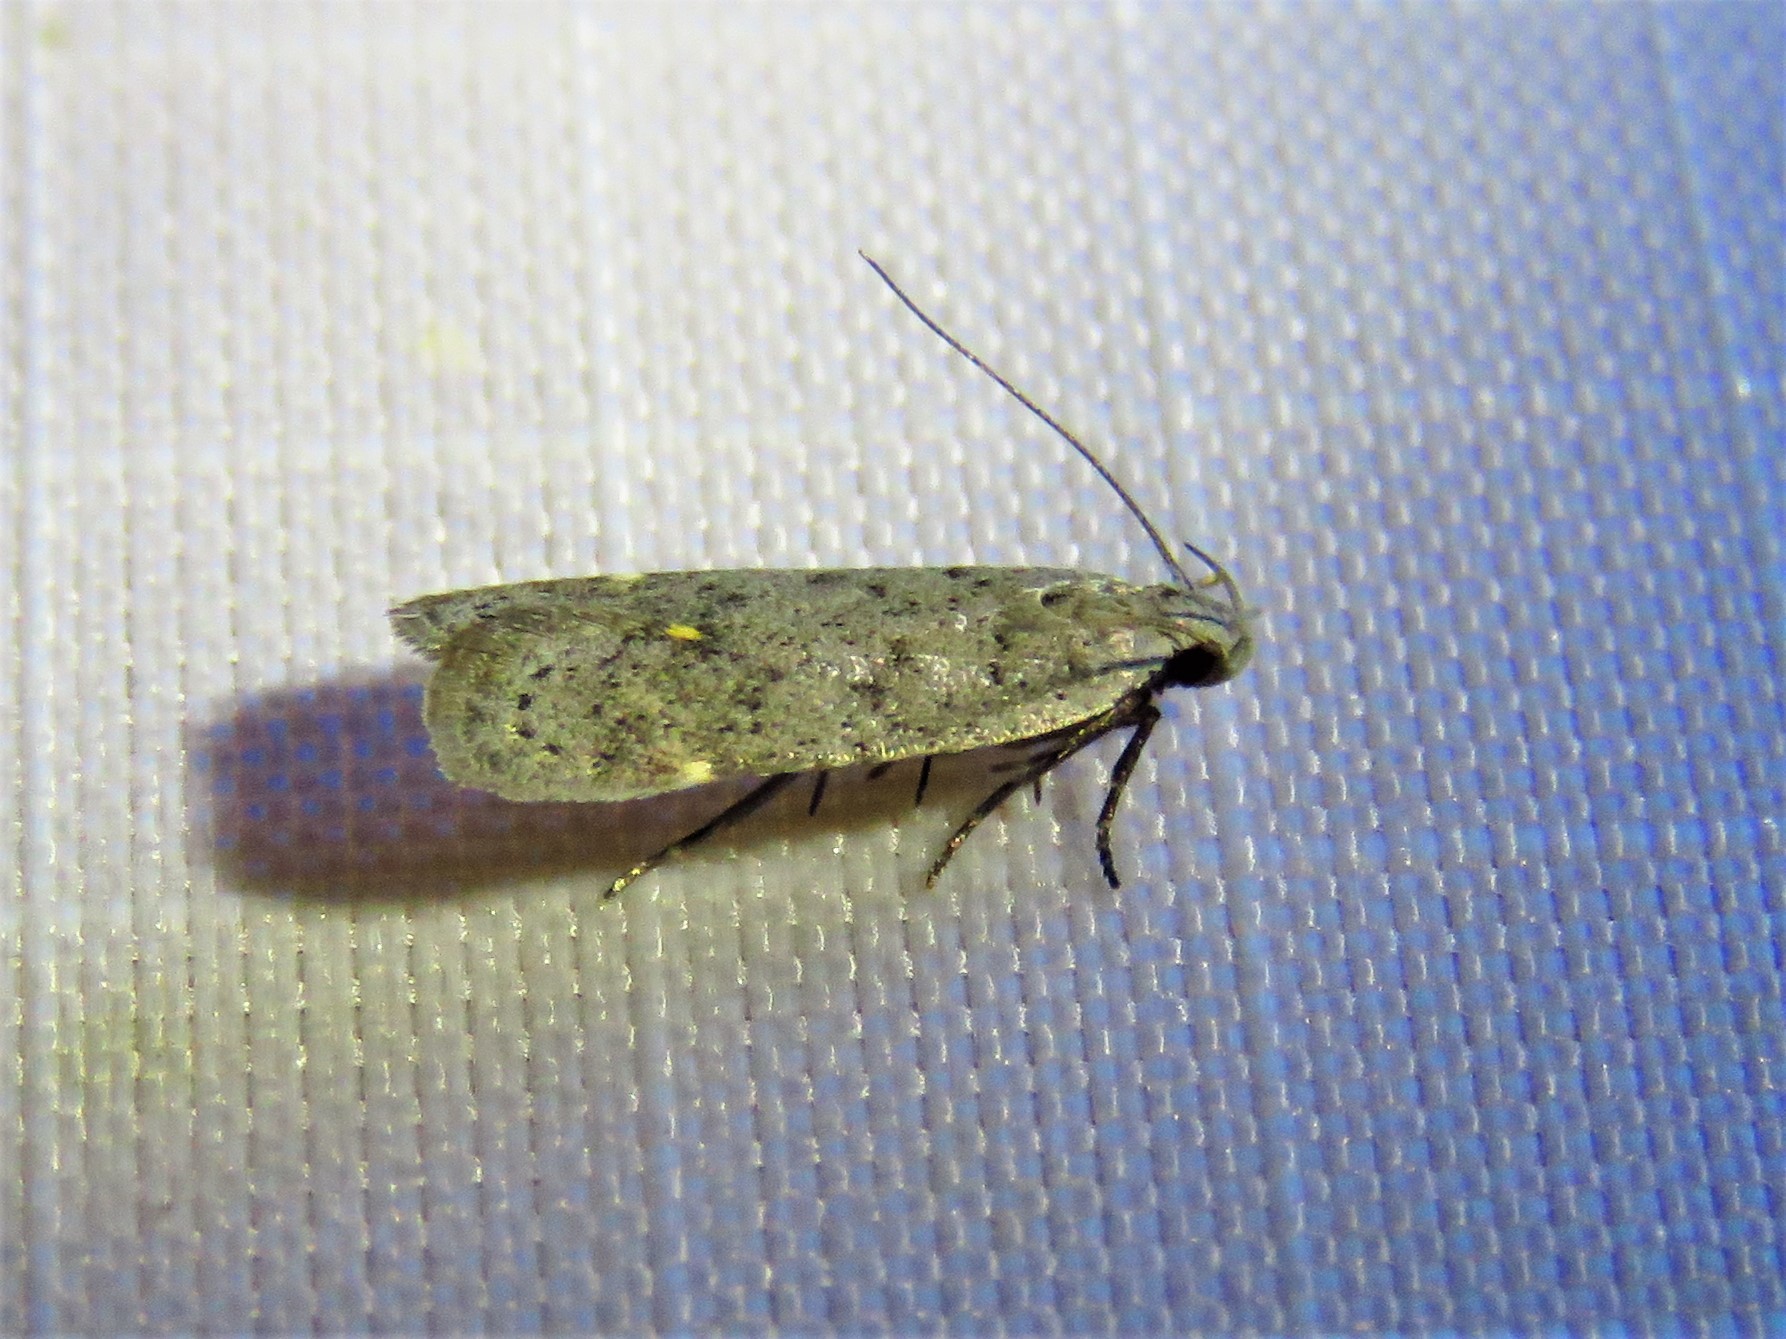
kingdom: Animalia
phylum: Arthropoda
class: Insecta
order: Lepidoptera
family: Gelechiidae
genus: Anacampsis
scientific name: Anacampsis comparanda
